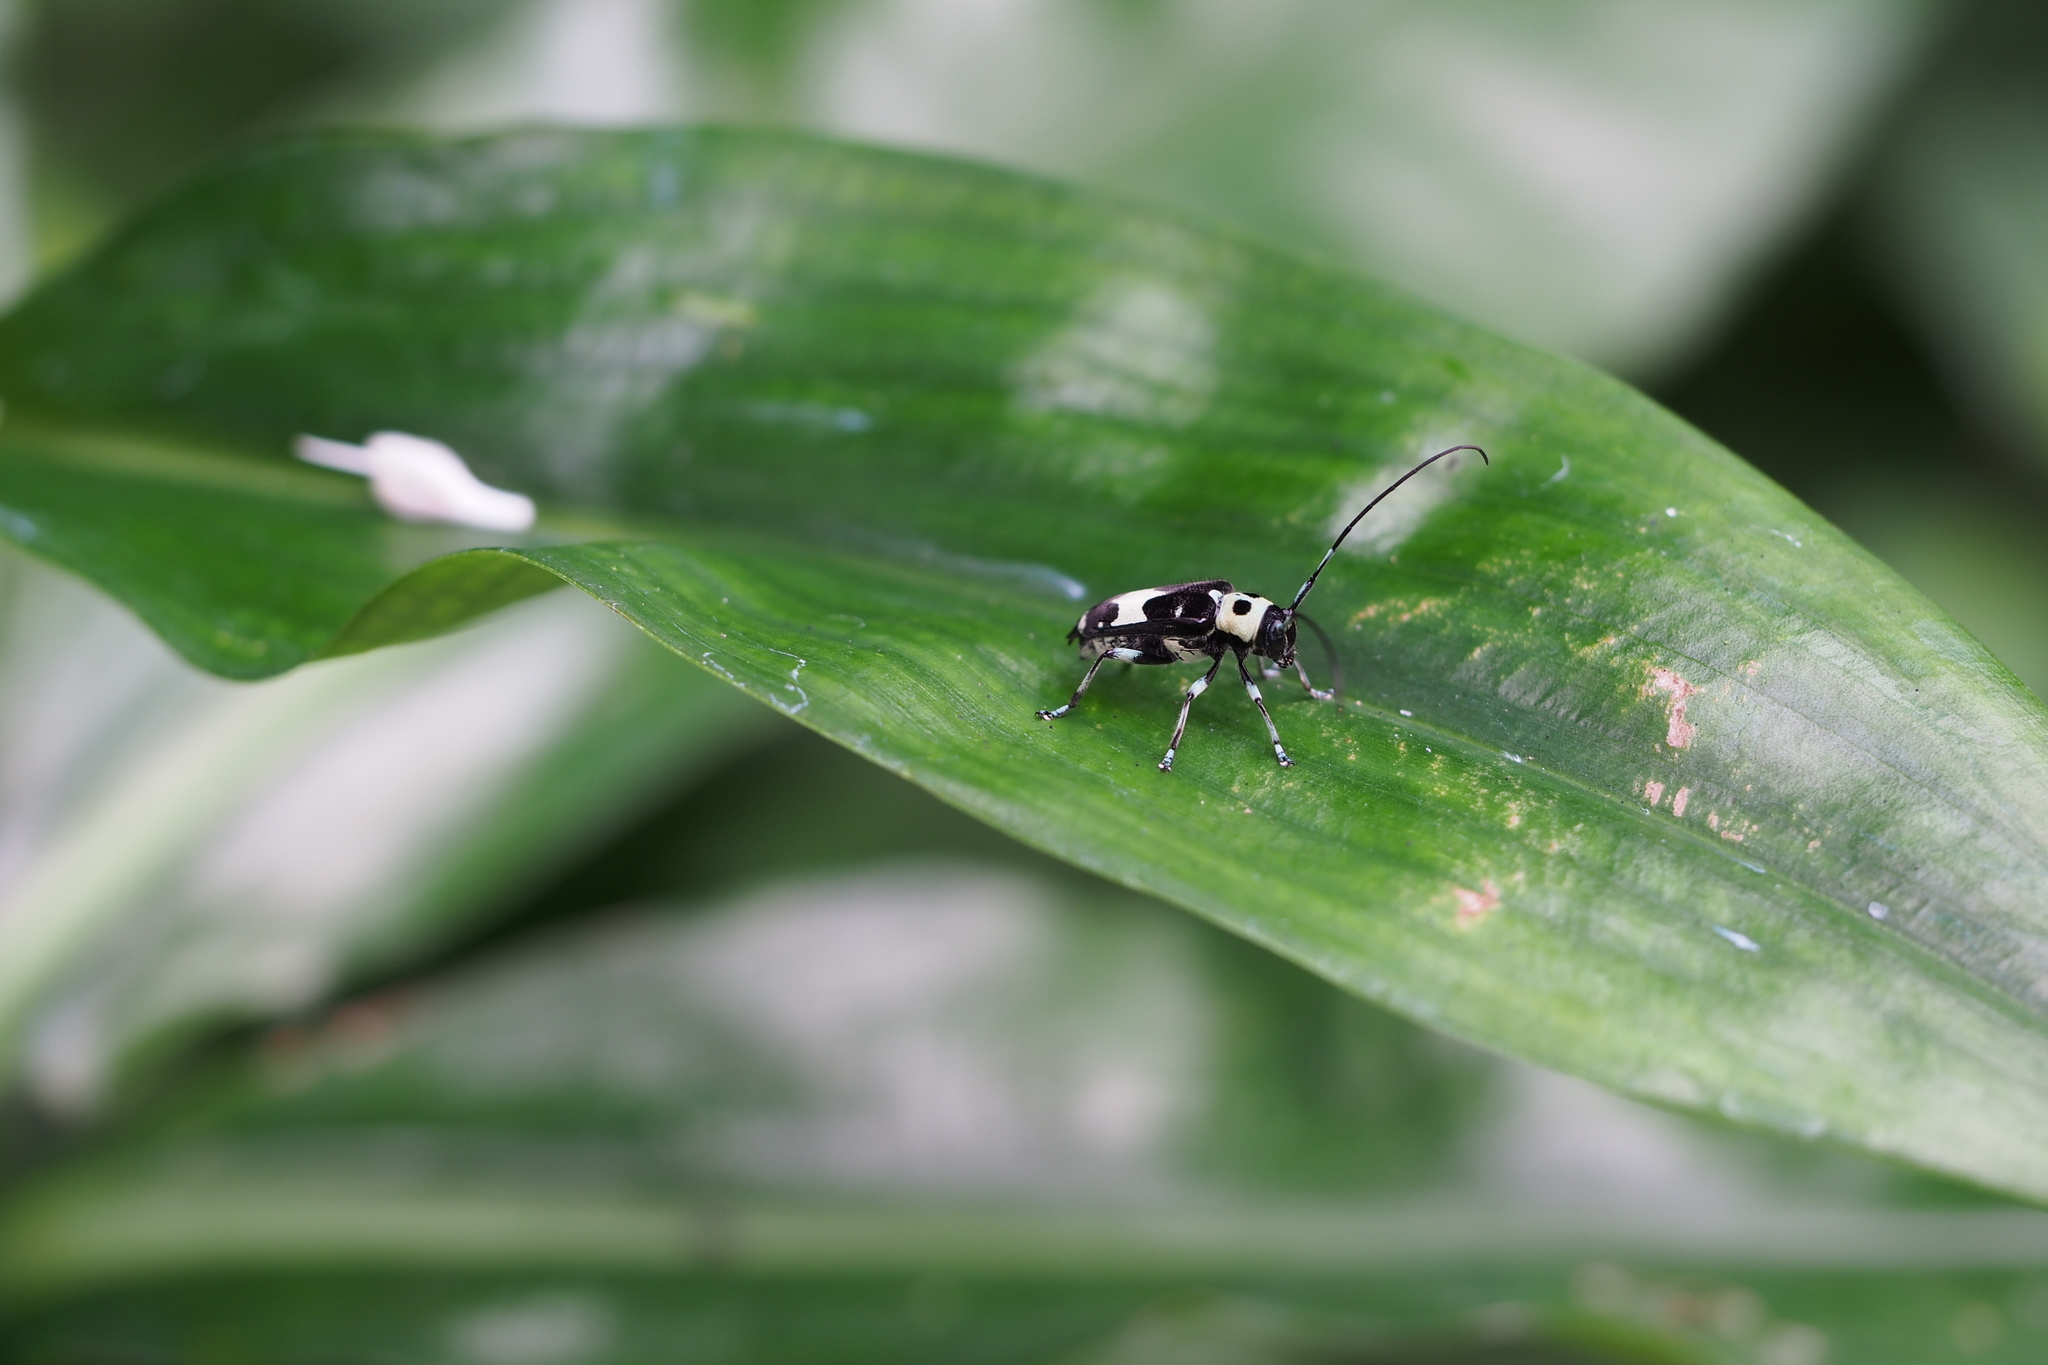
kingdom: Animalia
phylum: Arthropoda
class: Insecta
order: Coleoptera
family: Cerambycidae
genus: Paraglenea
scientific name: Paraglenea fortunei
